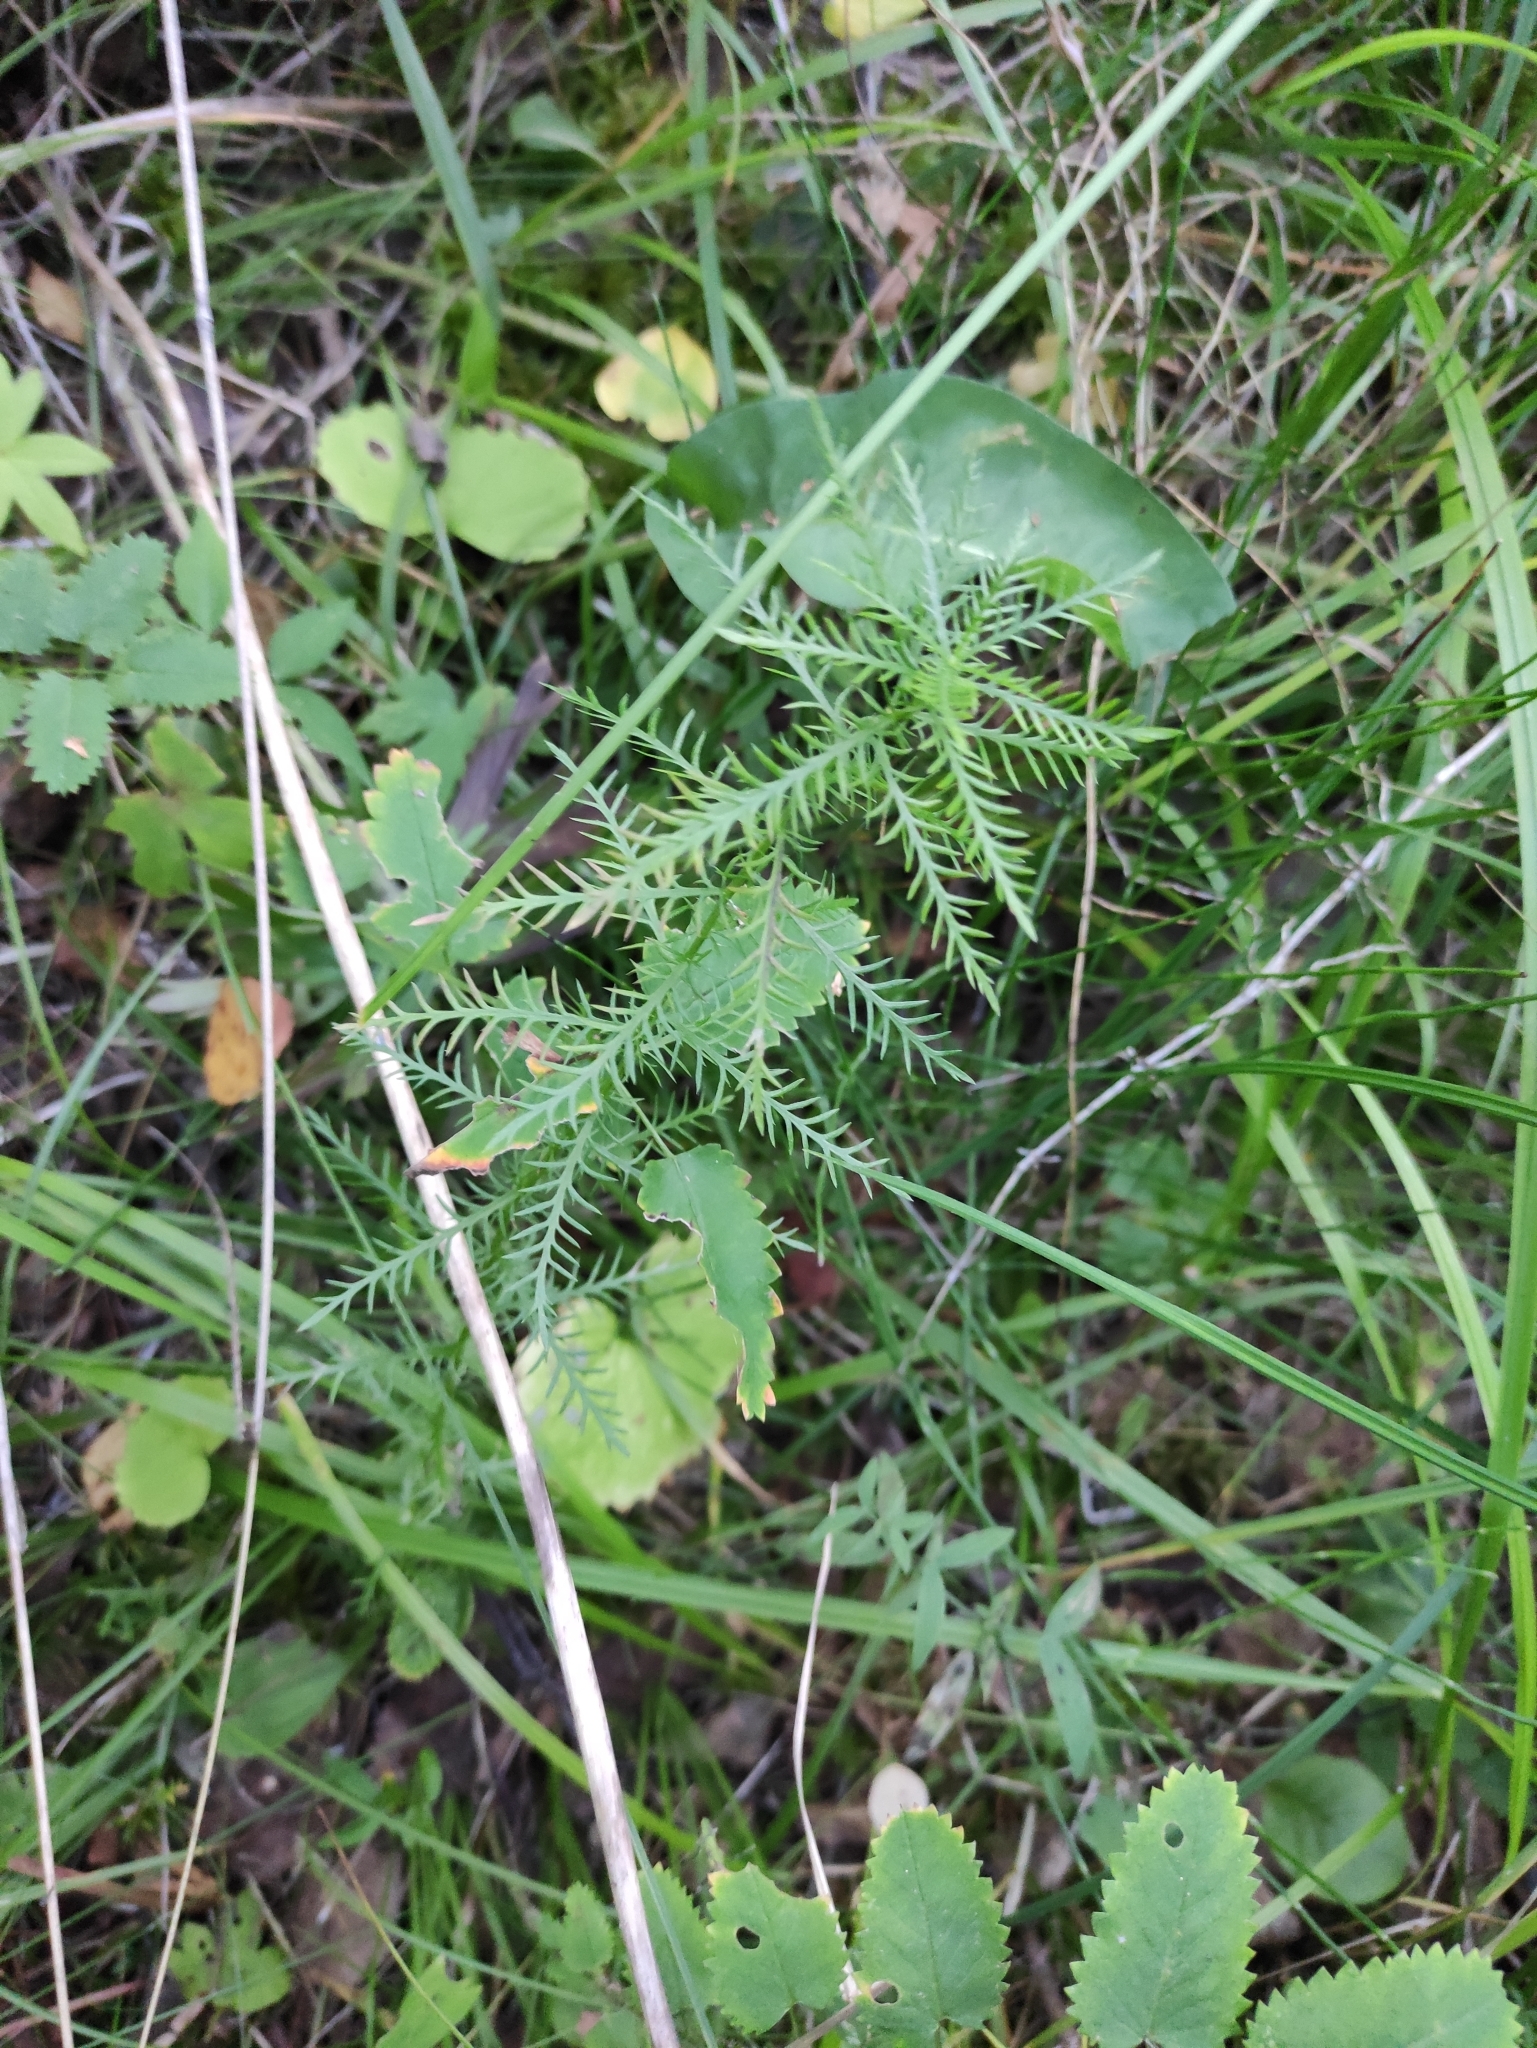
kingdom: Plantae
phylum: Tracheophyta
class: Magnoliopsida
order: Asterales
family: Asteraceae
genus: Achillea
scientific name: Achillea impatiens
